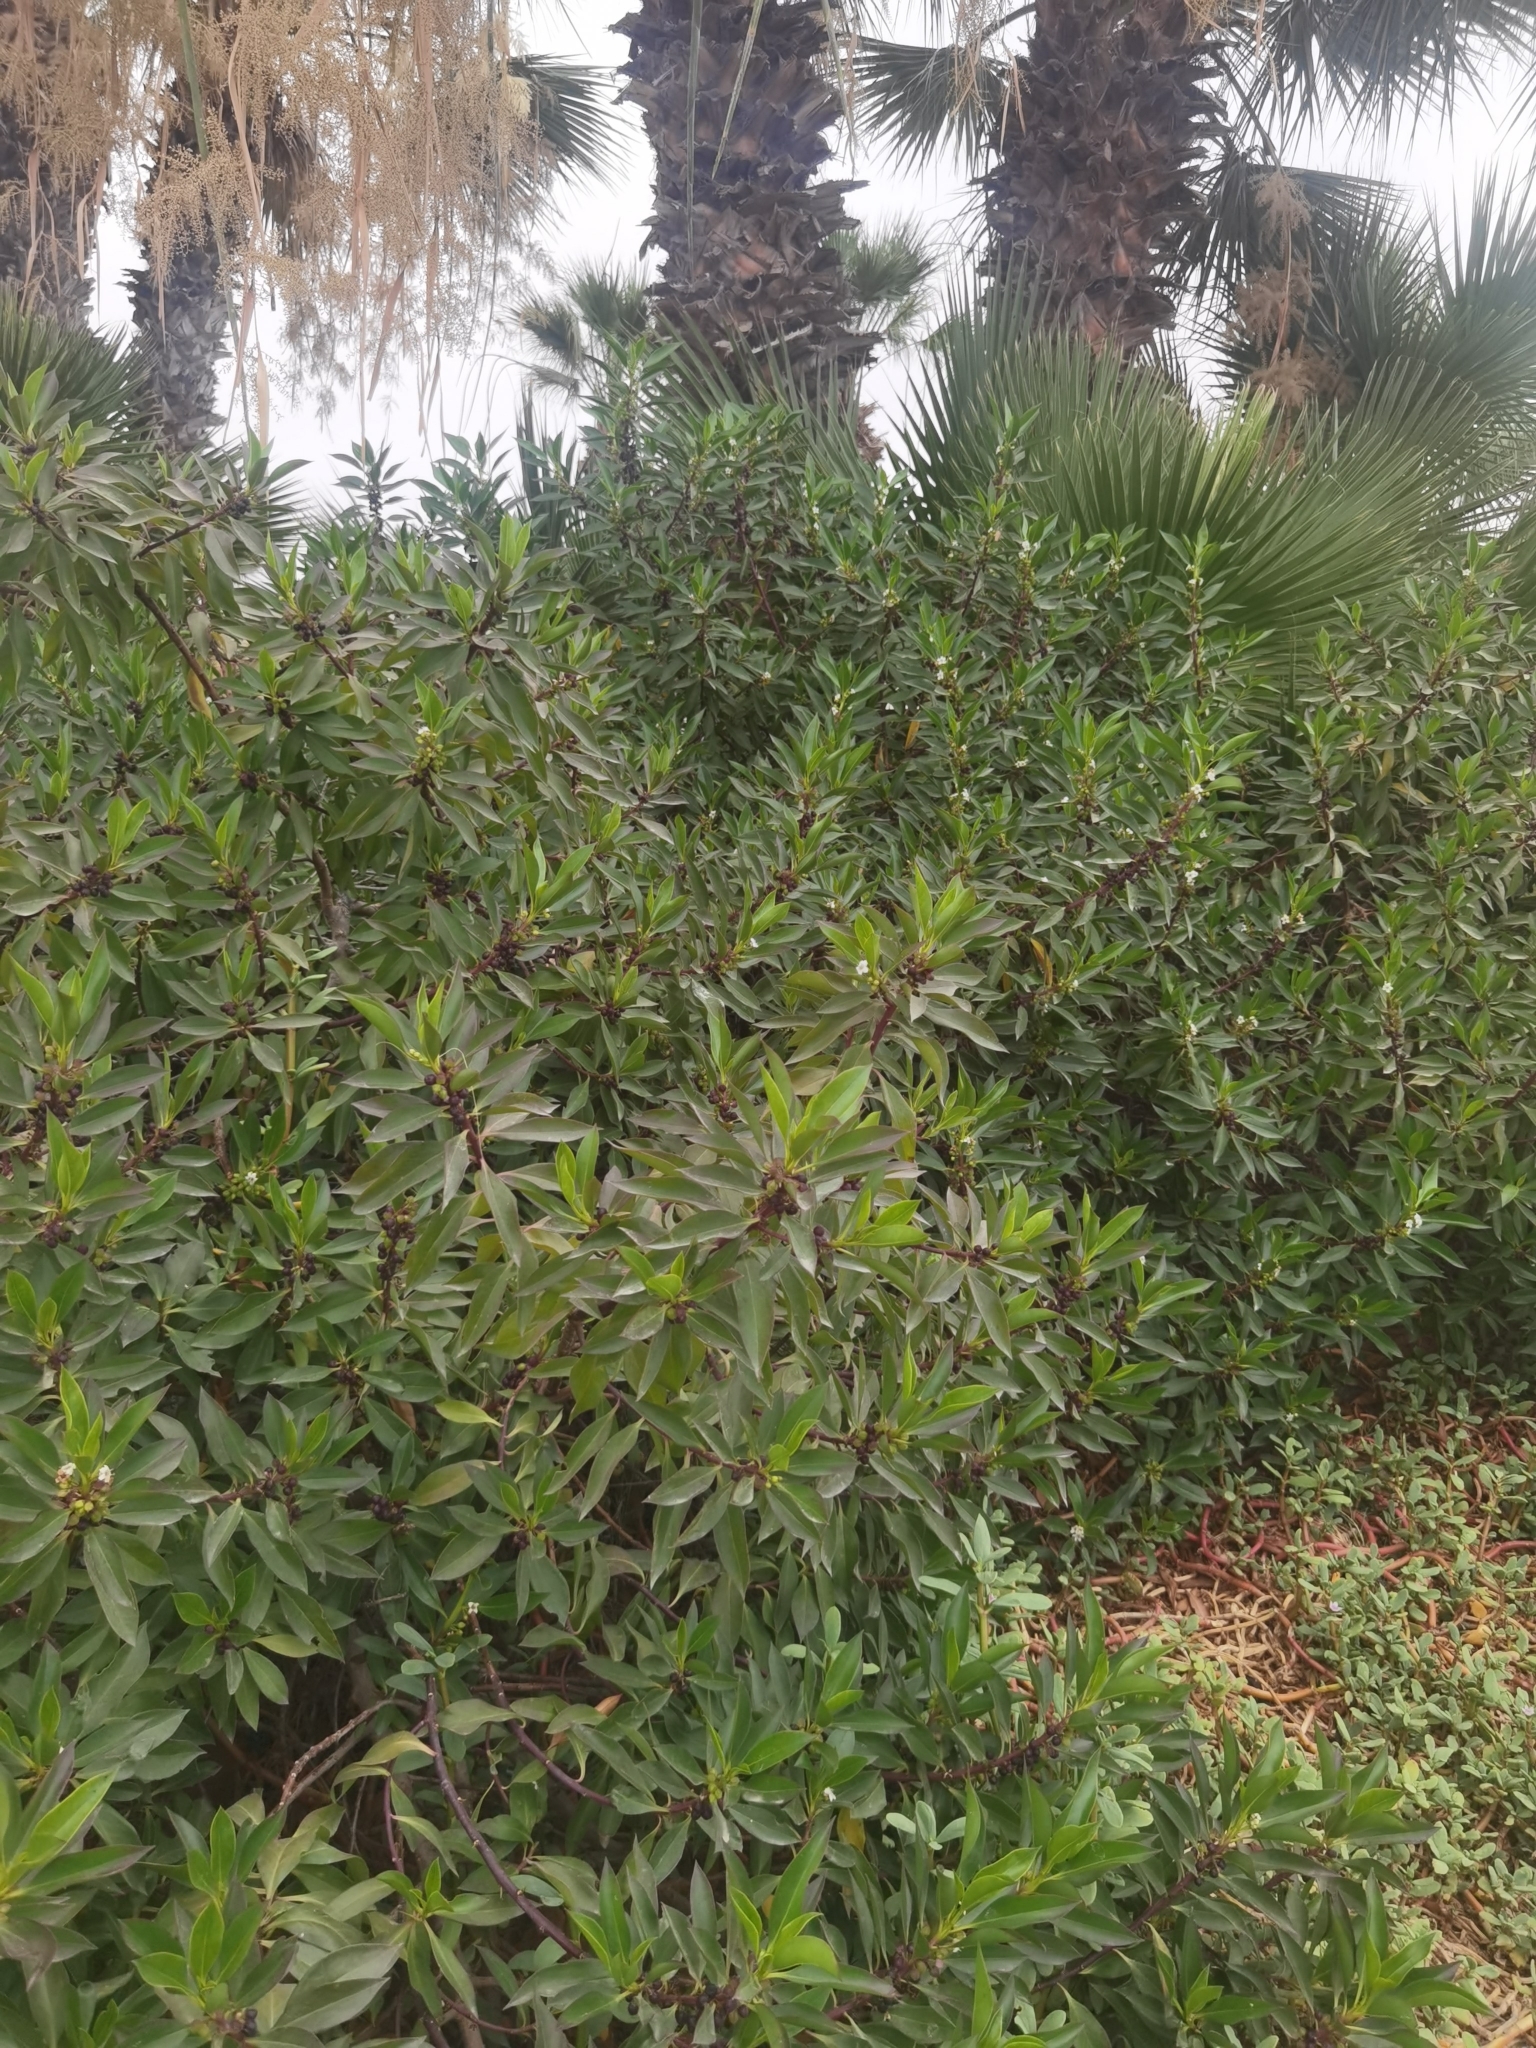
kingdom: Plantae
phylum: Tracheophyta
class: Magnoliopsida
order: Lamiales
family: Scrophulariaceae
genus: Myoporum
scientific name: Myoporum laetum
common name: Ngaio tree
